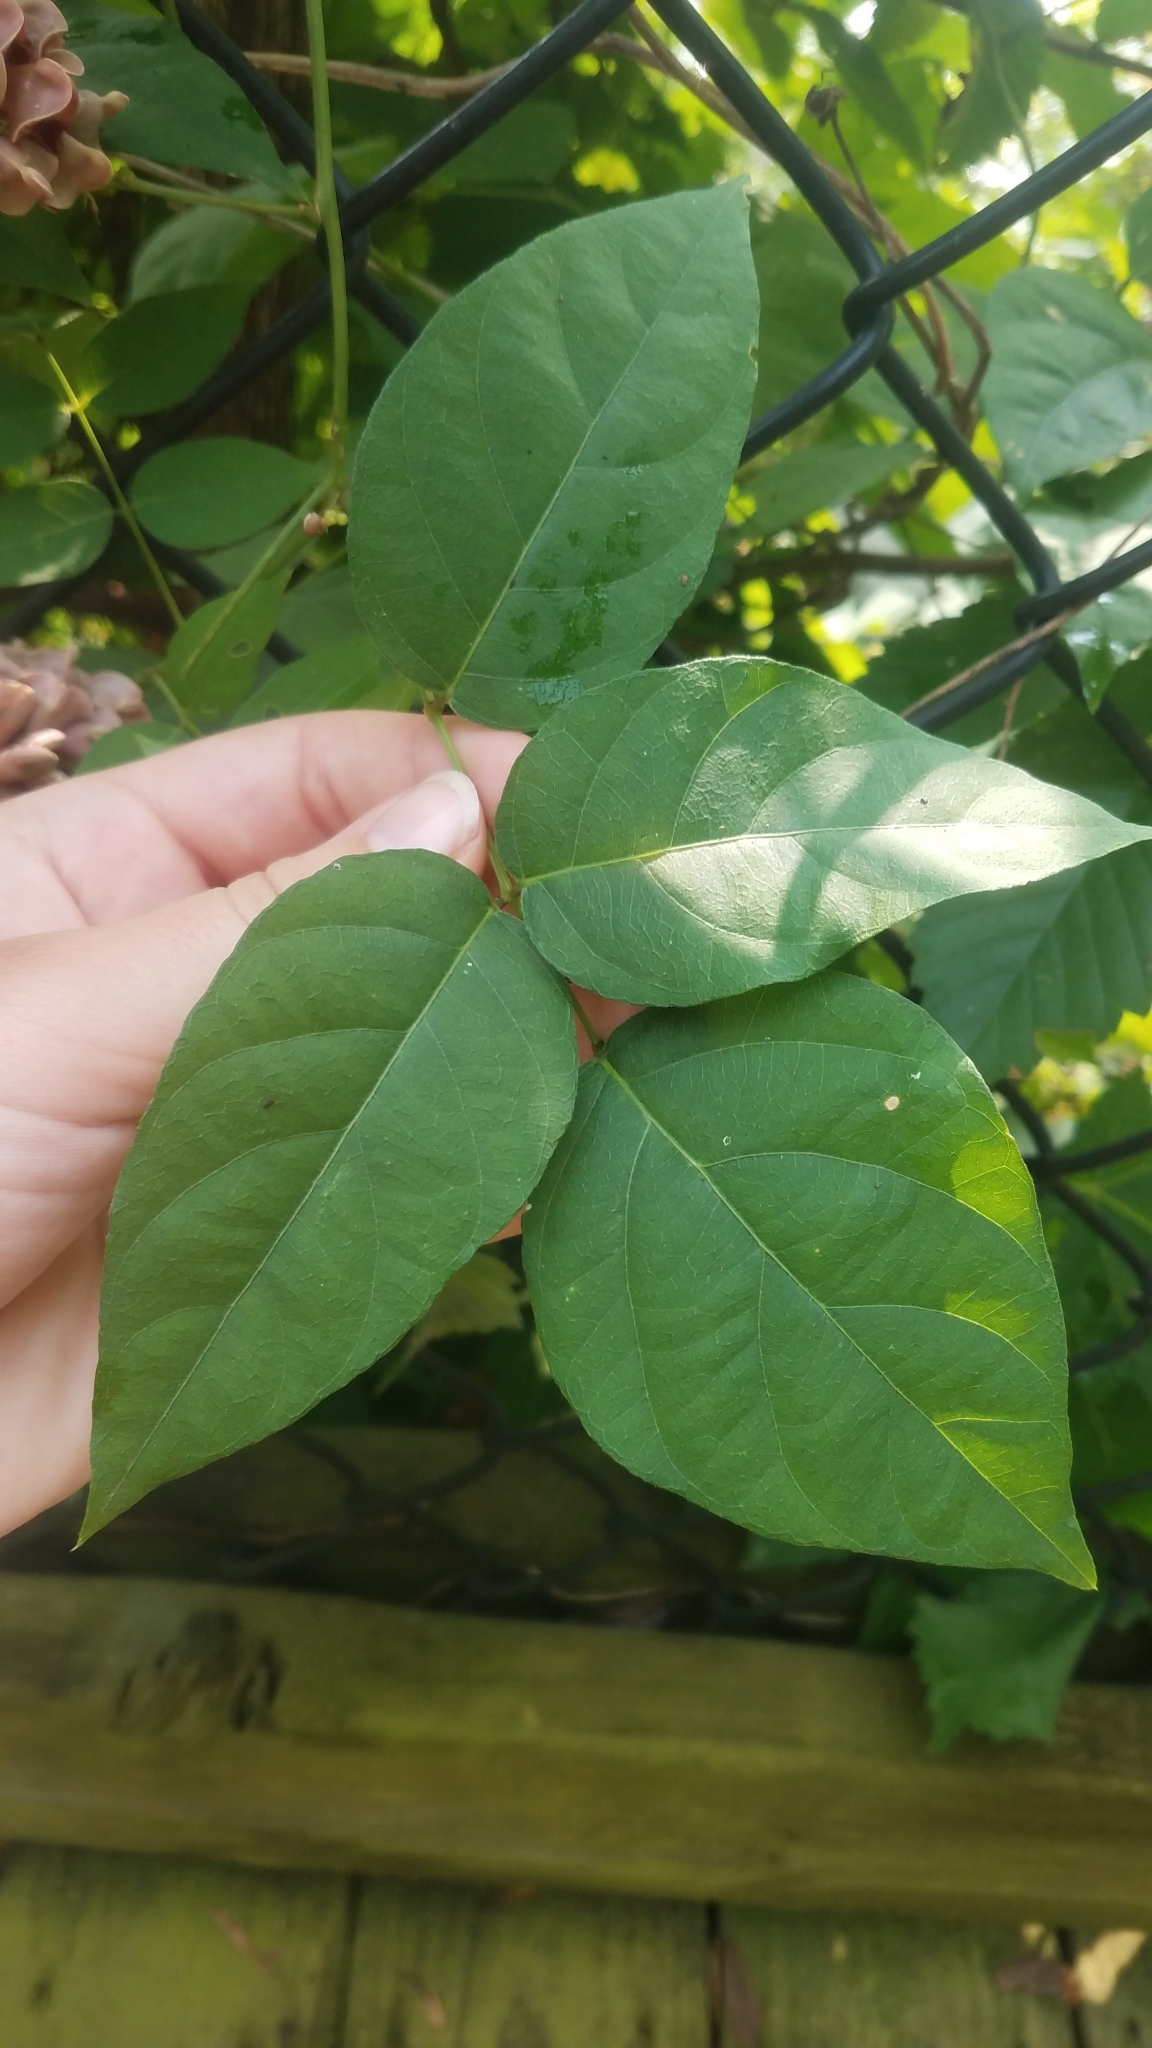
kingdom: Plantae
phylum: Tracheophyta
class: Magnoliopsida
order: Fabales
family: Fabaceae
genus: Apios
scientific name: Apios americana
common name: American potato-bean
